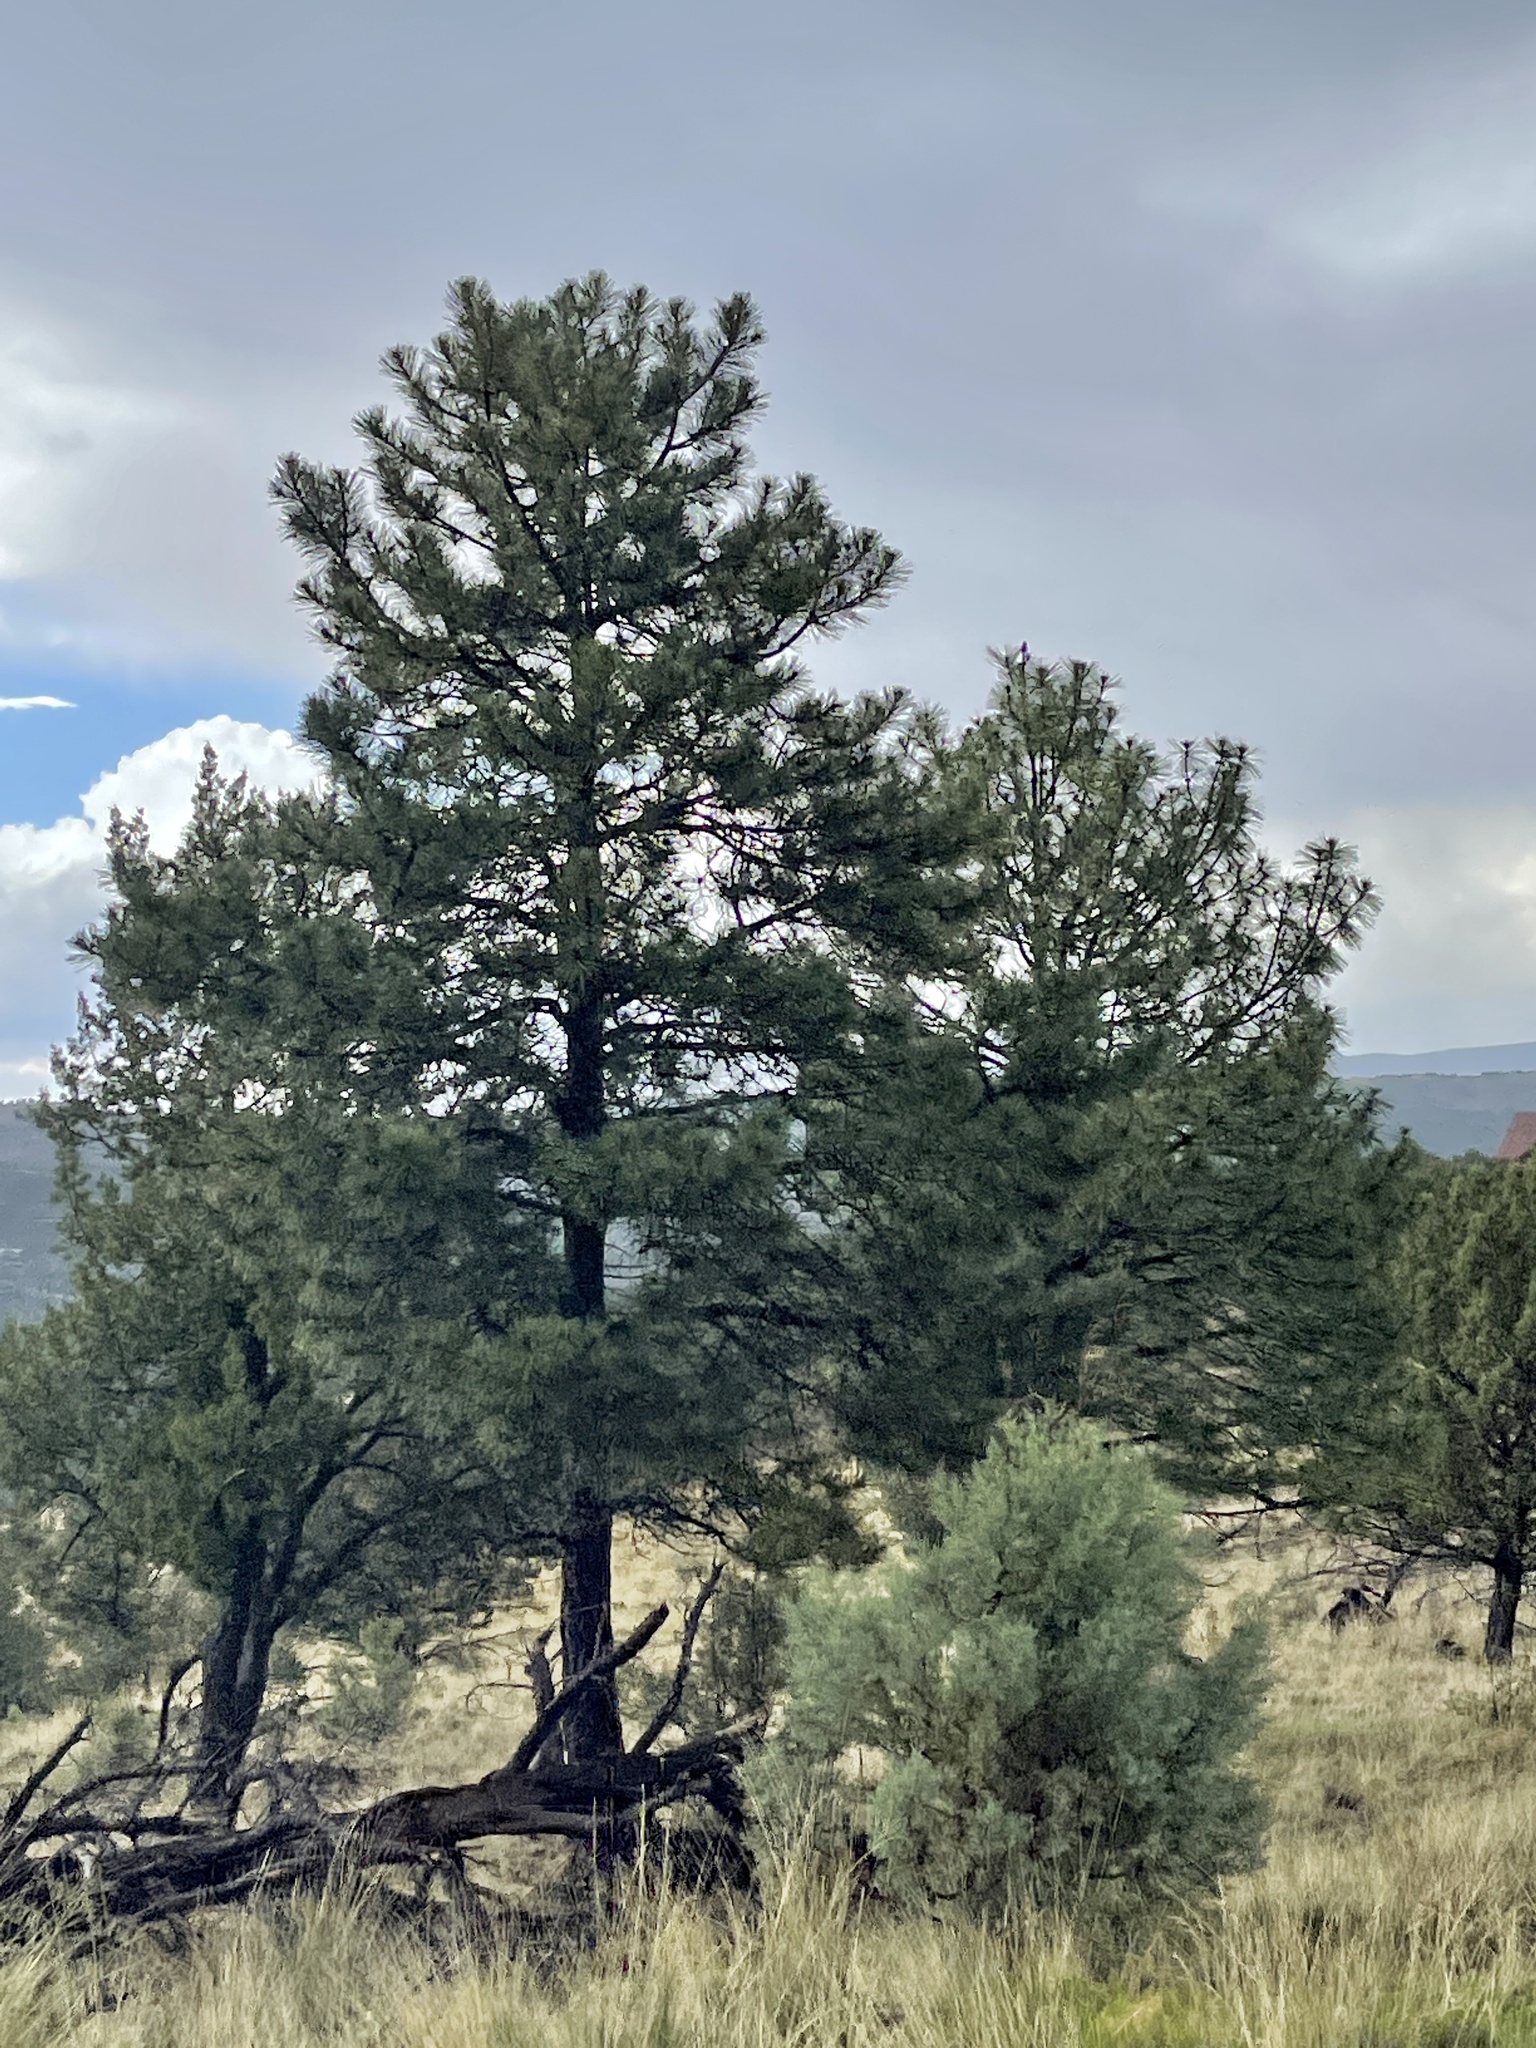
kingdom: Plantae
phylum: Tracheophyta
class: Pinopsida
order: Pinales
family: Pinaceae
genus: Pinus
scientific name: Pinus ponderosa
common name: Western yellow-pine
